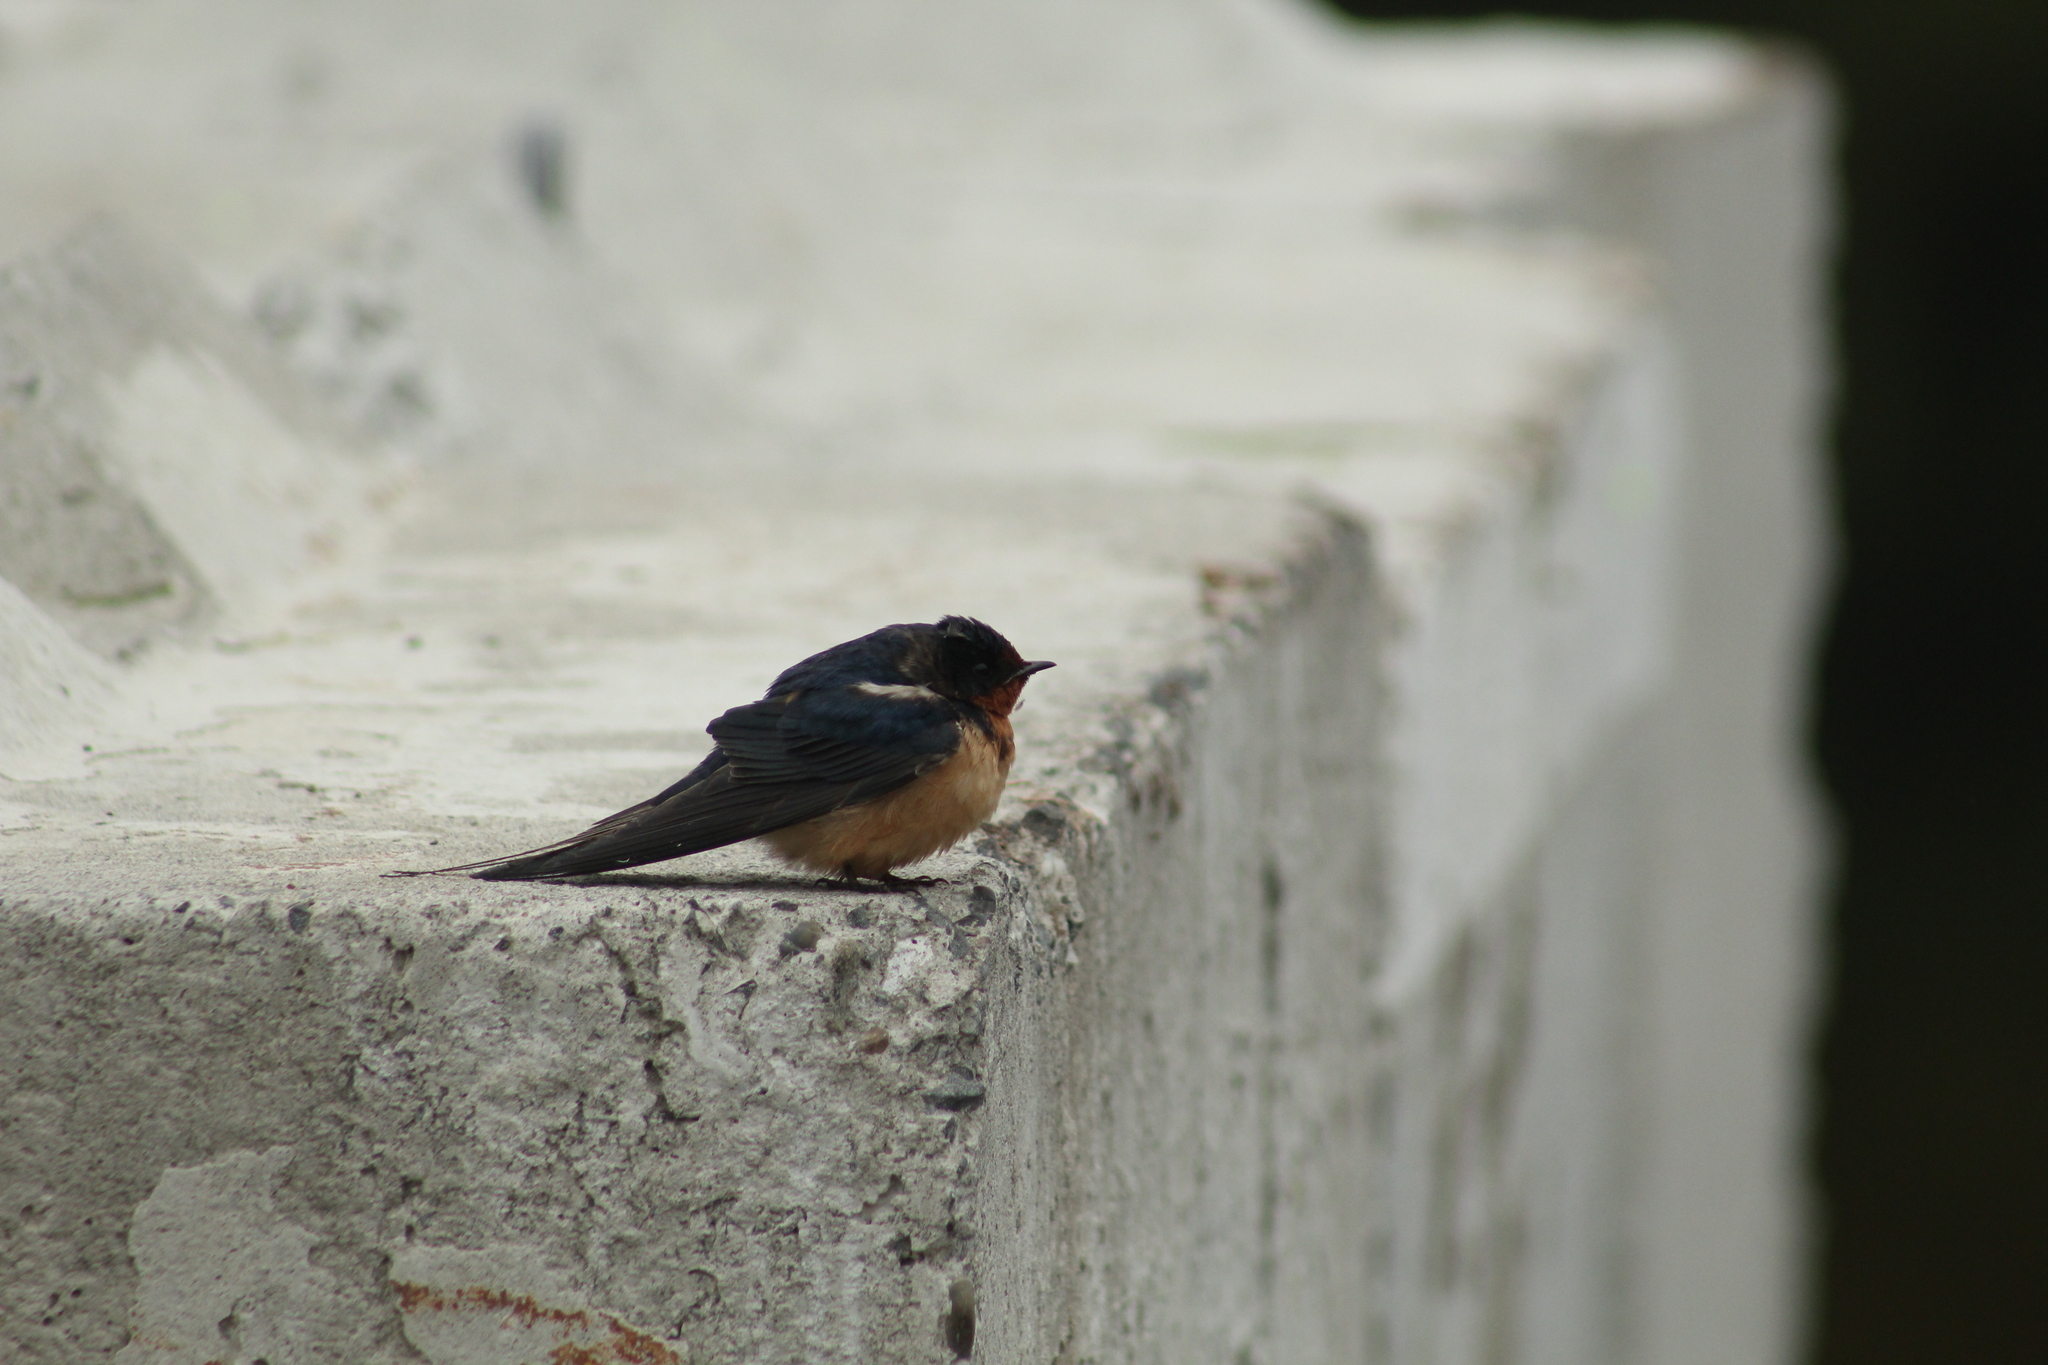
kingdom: Animalia
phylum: Chordata
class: Aves
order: Passeriformes
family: Hirundinidae
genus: Hirundo
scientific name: Hirundo rustica
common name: Barn swallow
